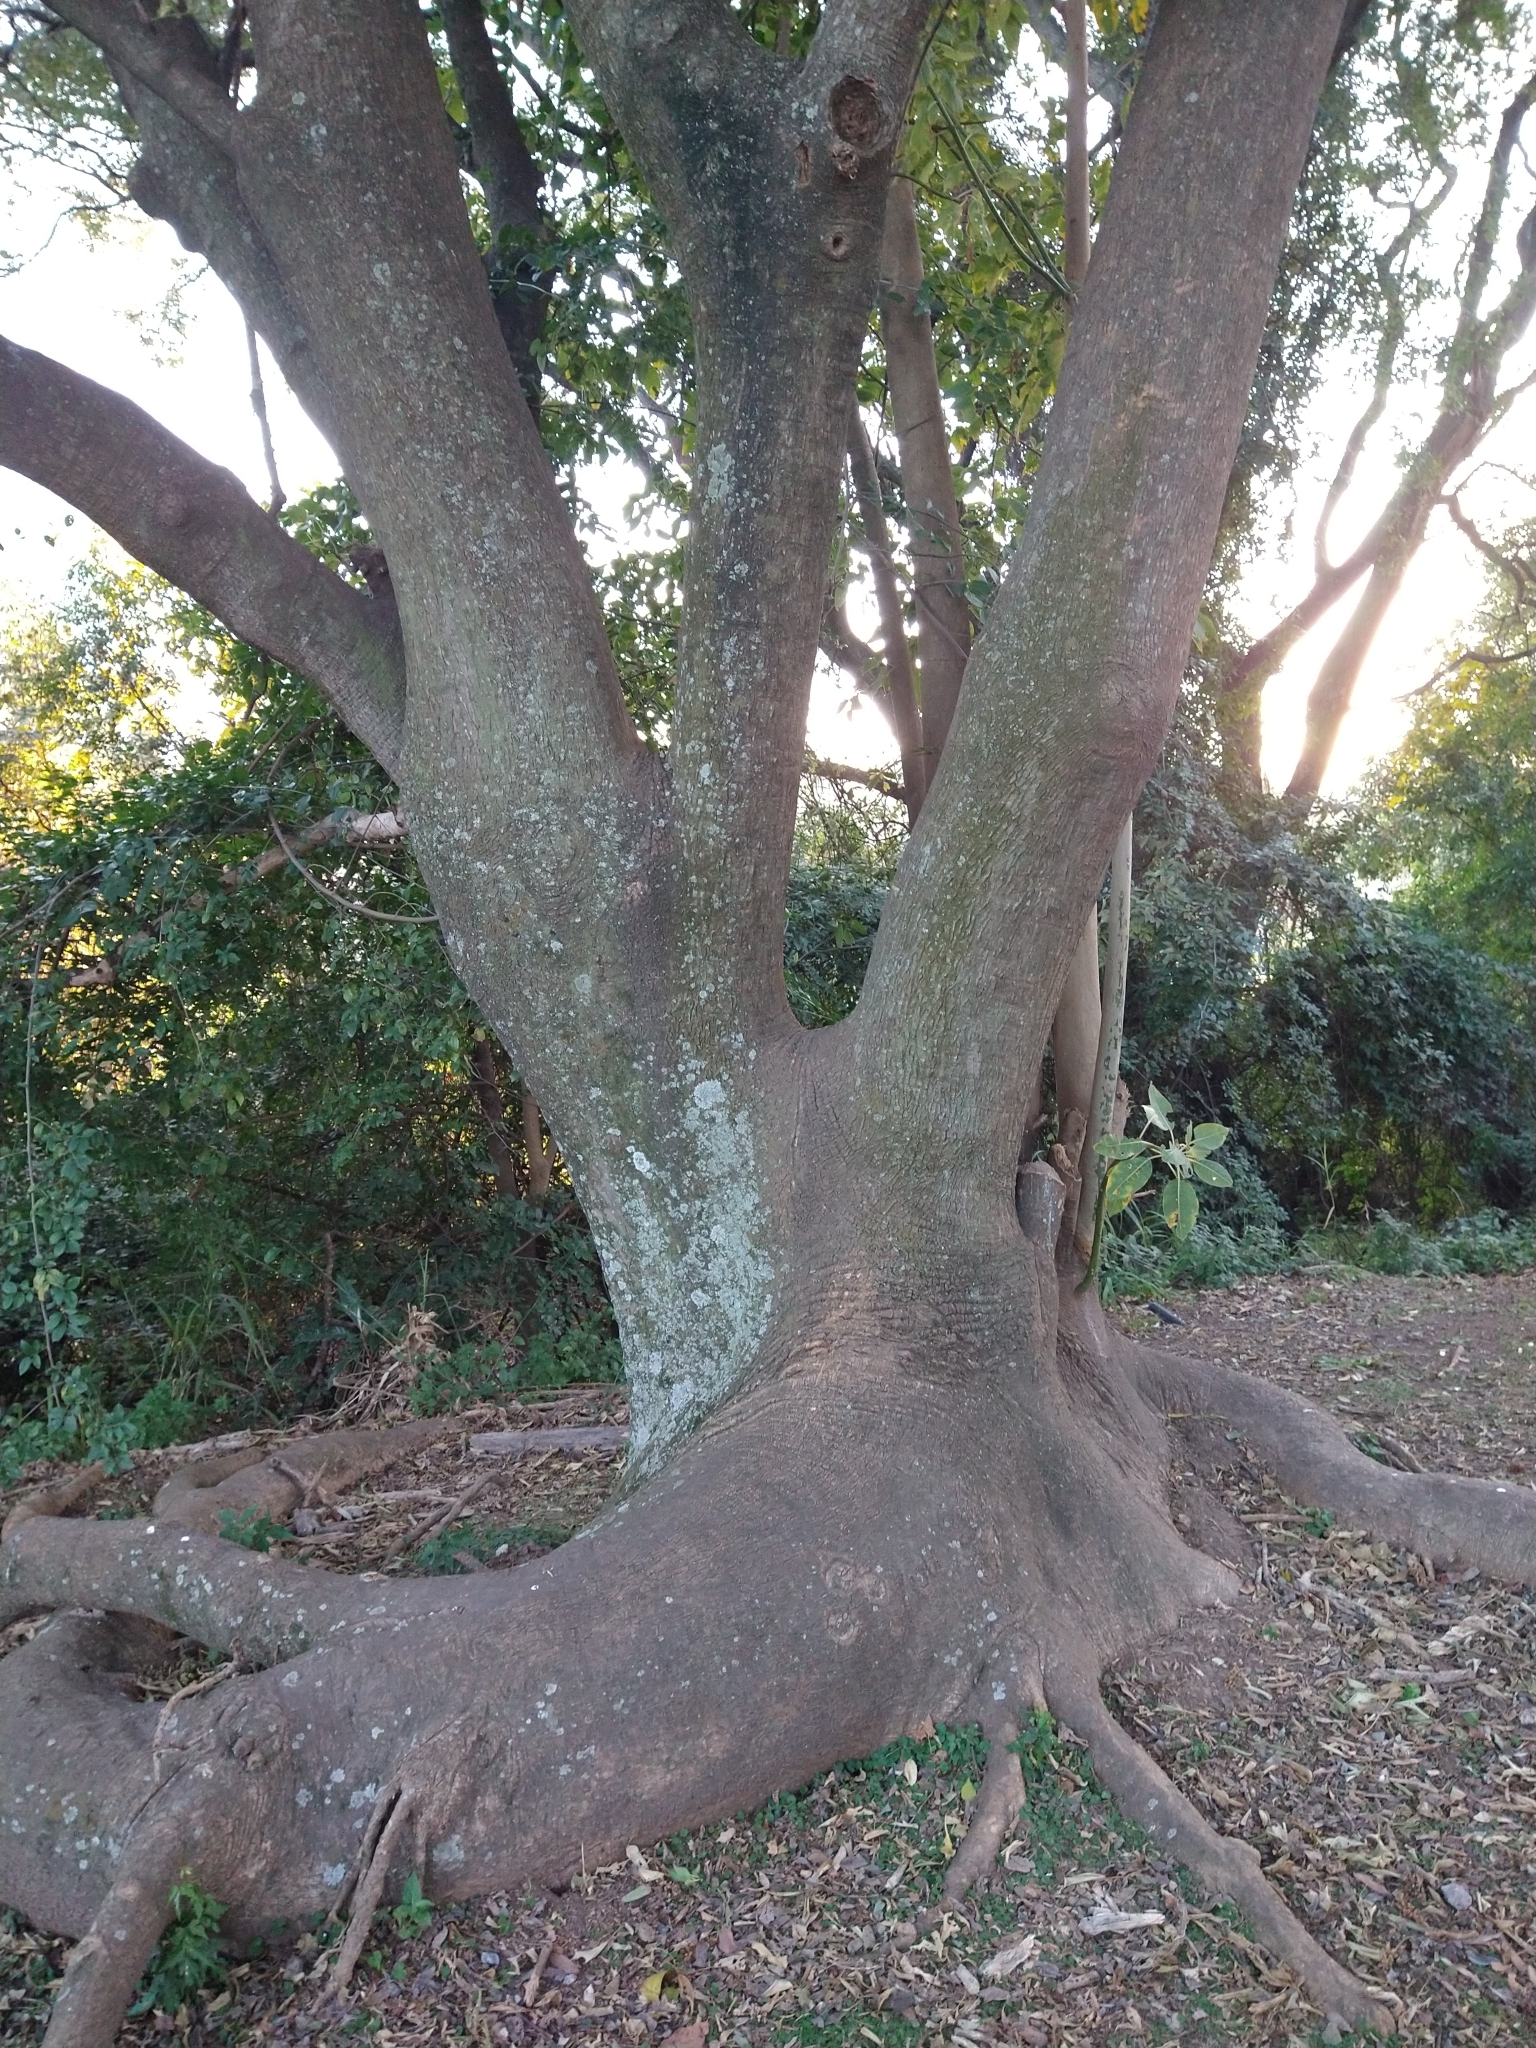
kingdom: Plantae
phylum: Tracheophyta
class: Magnoliopsida
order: Caryophyllales
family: Phytolaccaceae
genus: Phytolacca
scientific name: Phytolacca dioica
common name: Pokeweed
